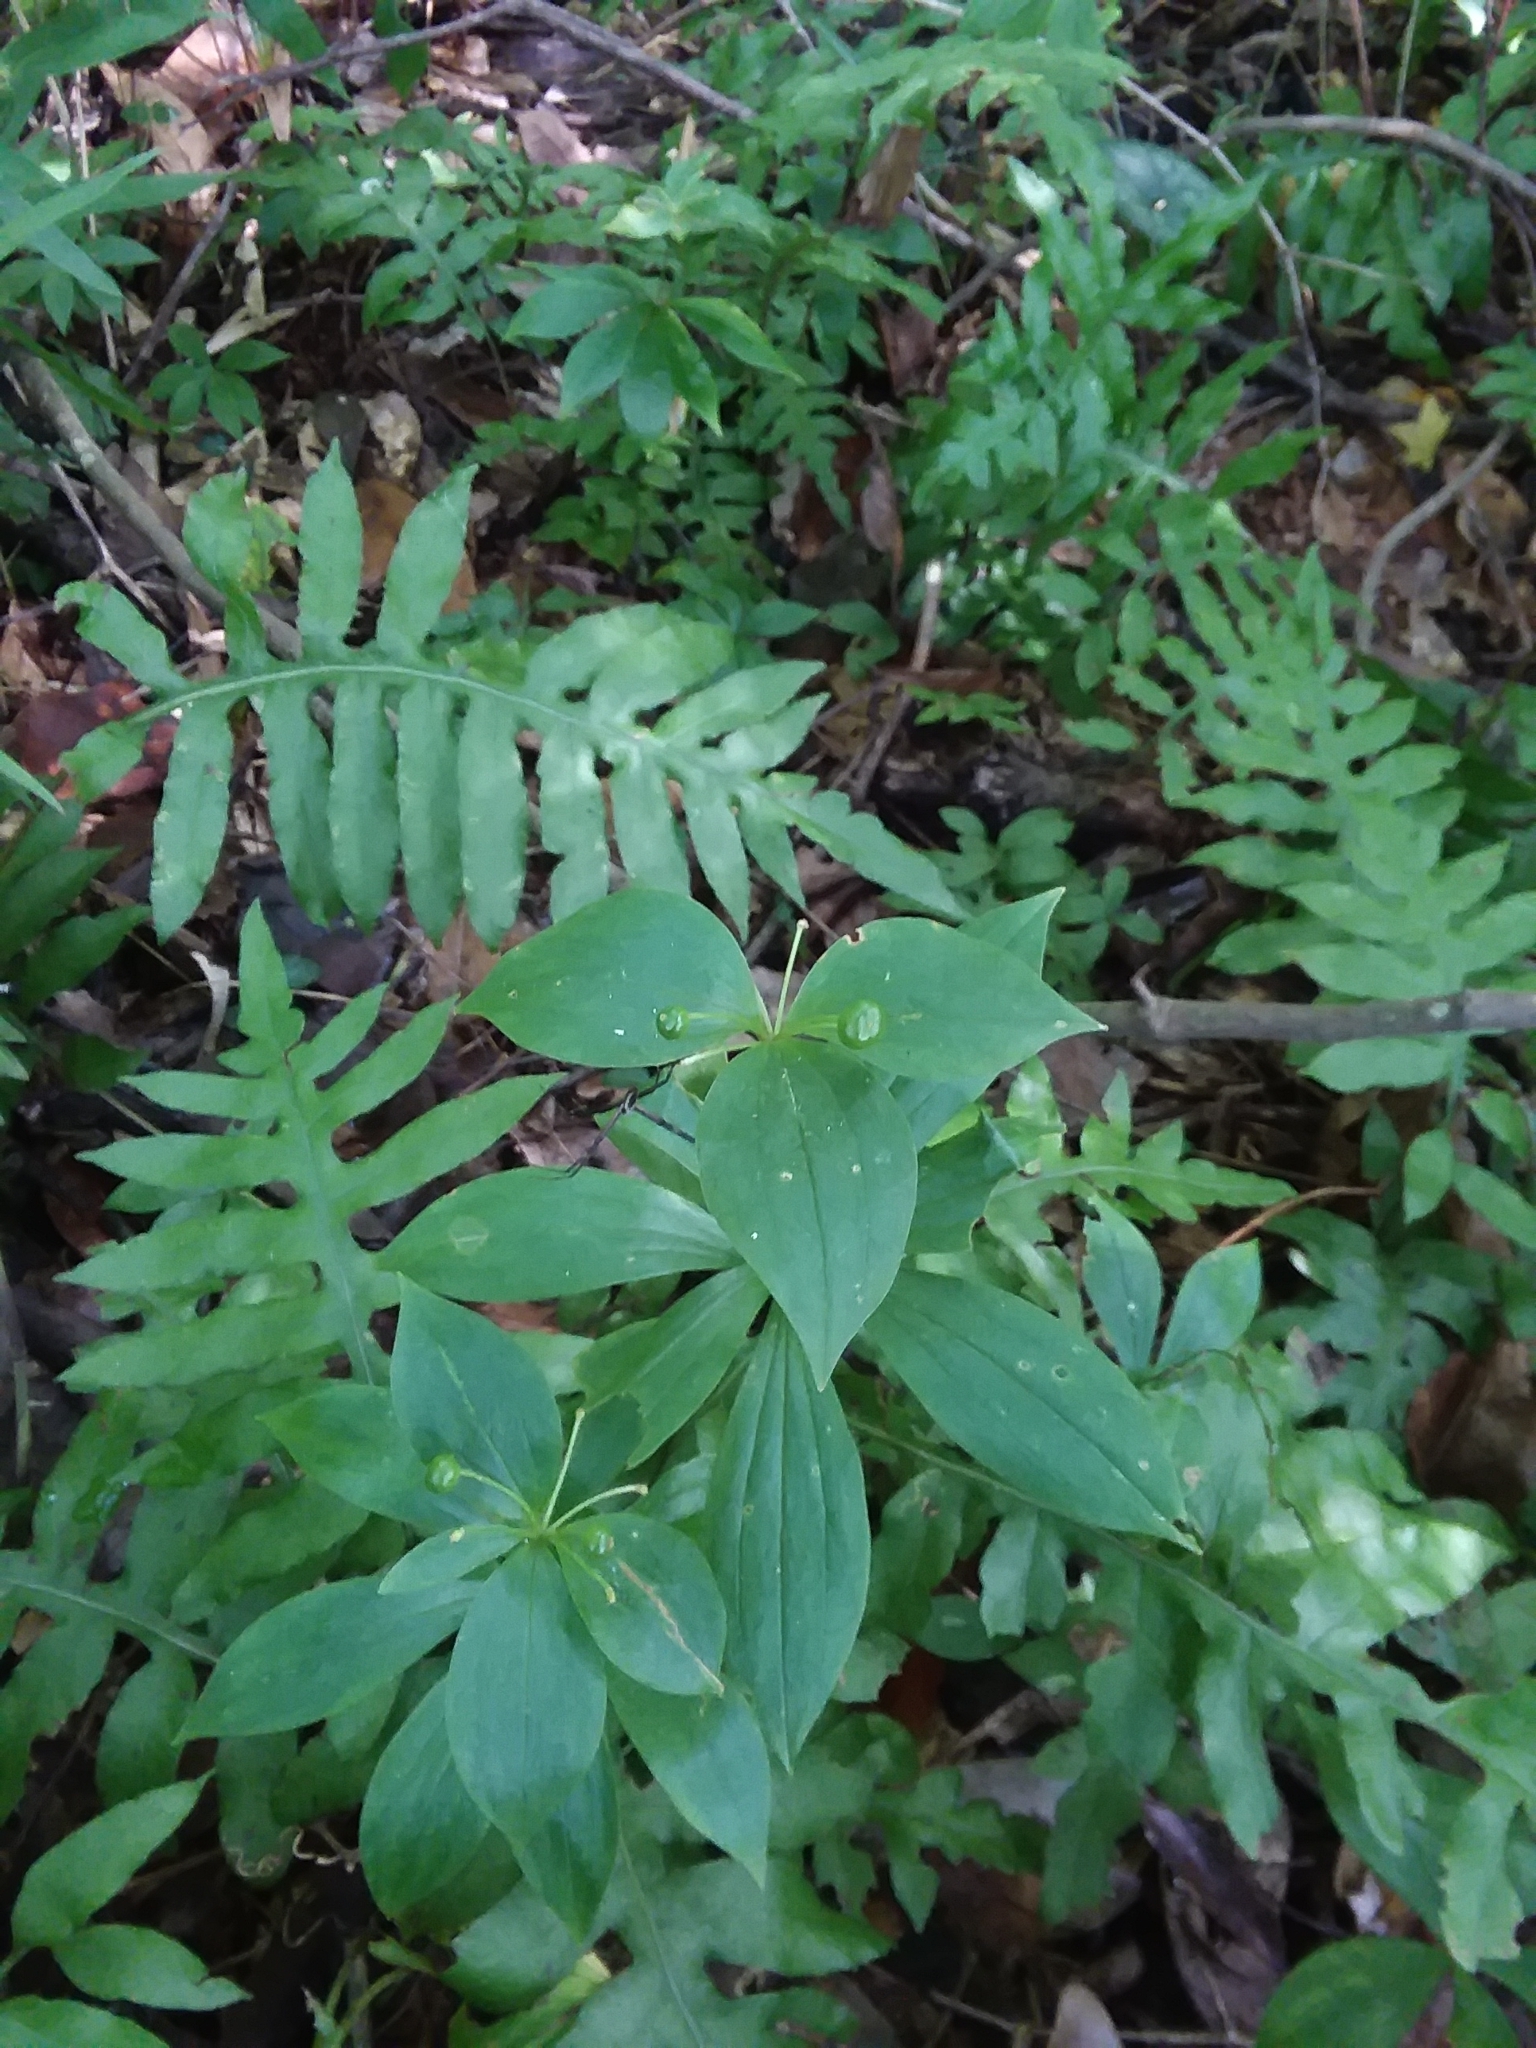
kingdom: Plantae
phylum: Tracheophyta
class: Liliopsida
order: Liliales
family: Liliaceae
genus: Medeola
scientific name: Medeola virginiana
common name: Indian cucumber-root
